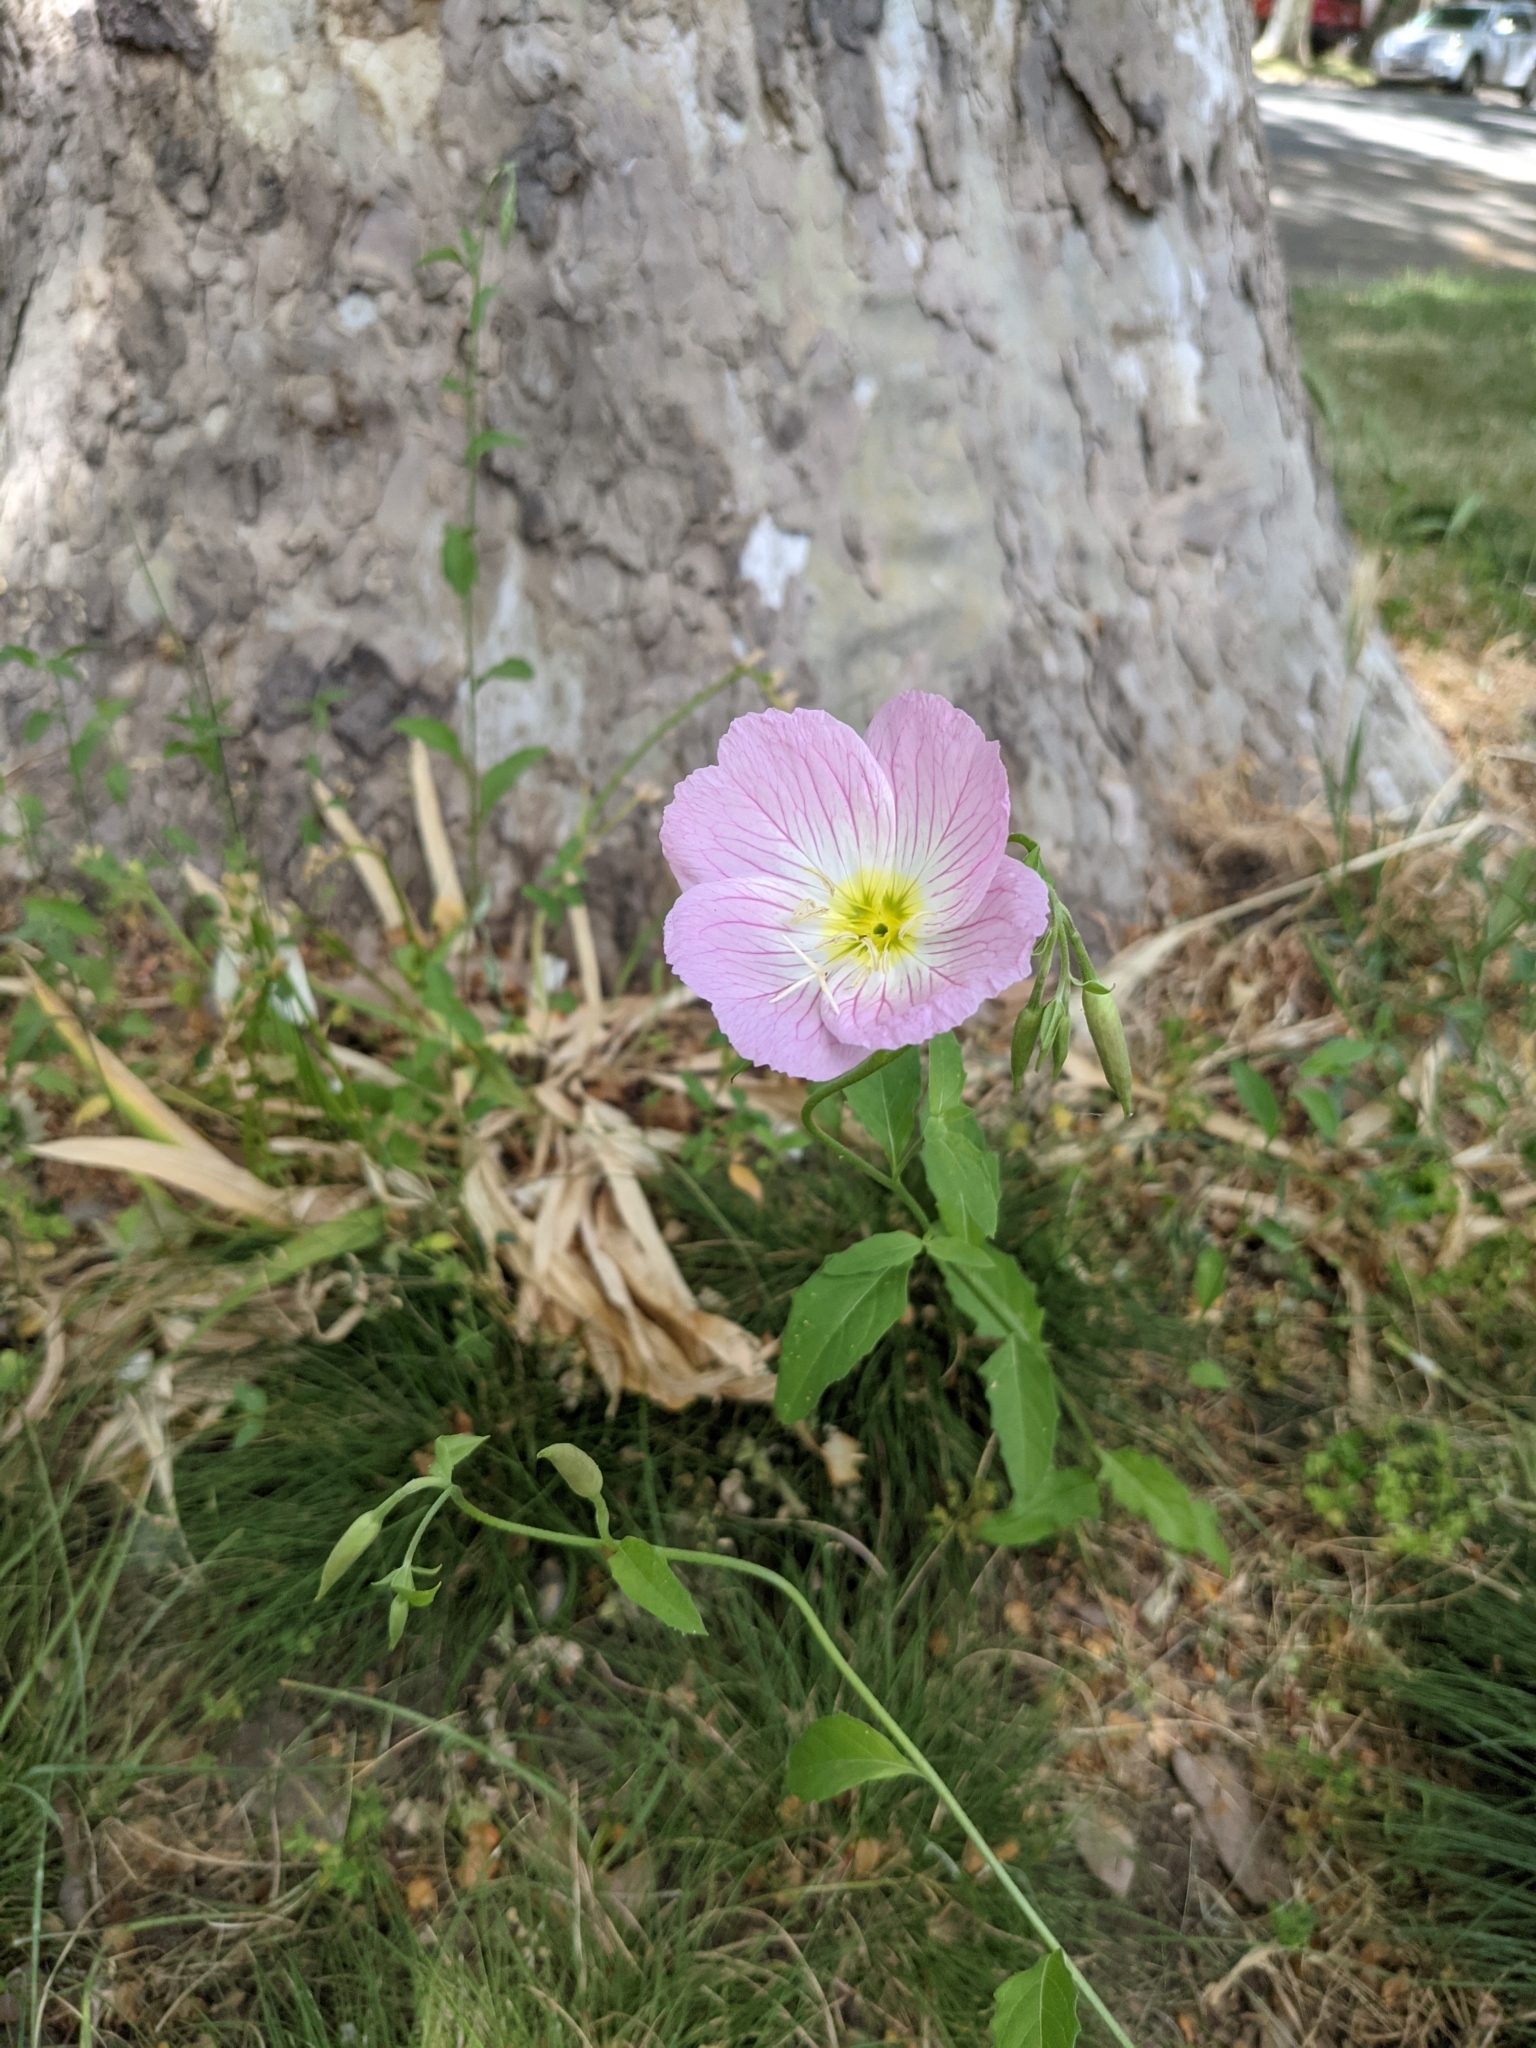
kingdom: Plantae
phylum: Tracheophyta
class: Magnoliopsida
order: Myrtales
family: Onagraceae
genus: Oenothera
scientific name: Oenothera speciosa
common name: White evening-primrose
